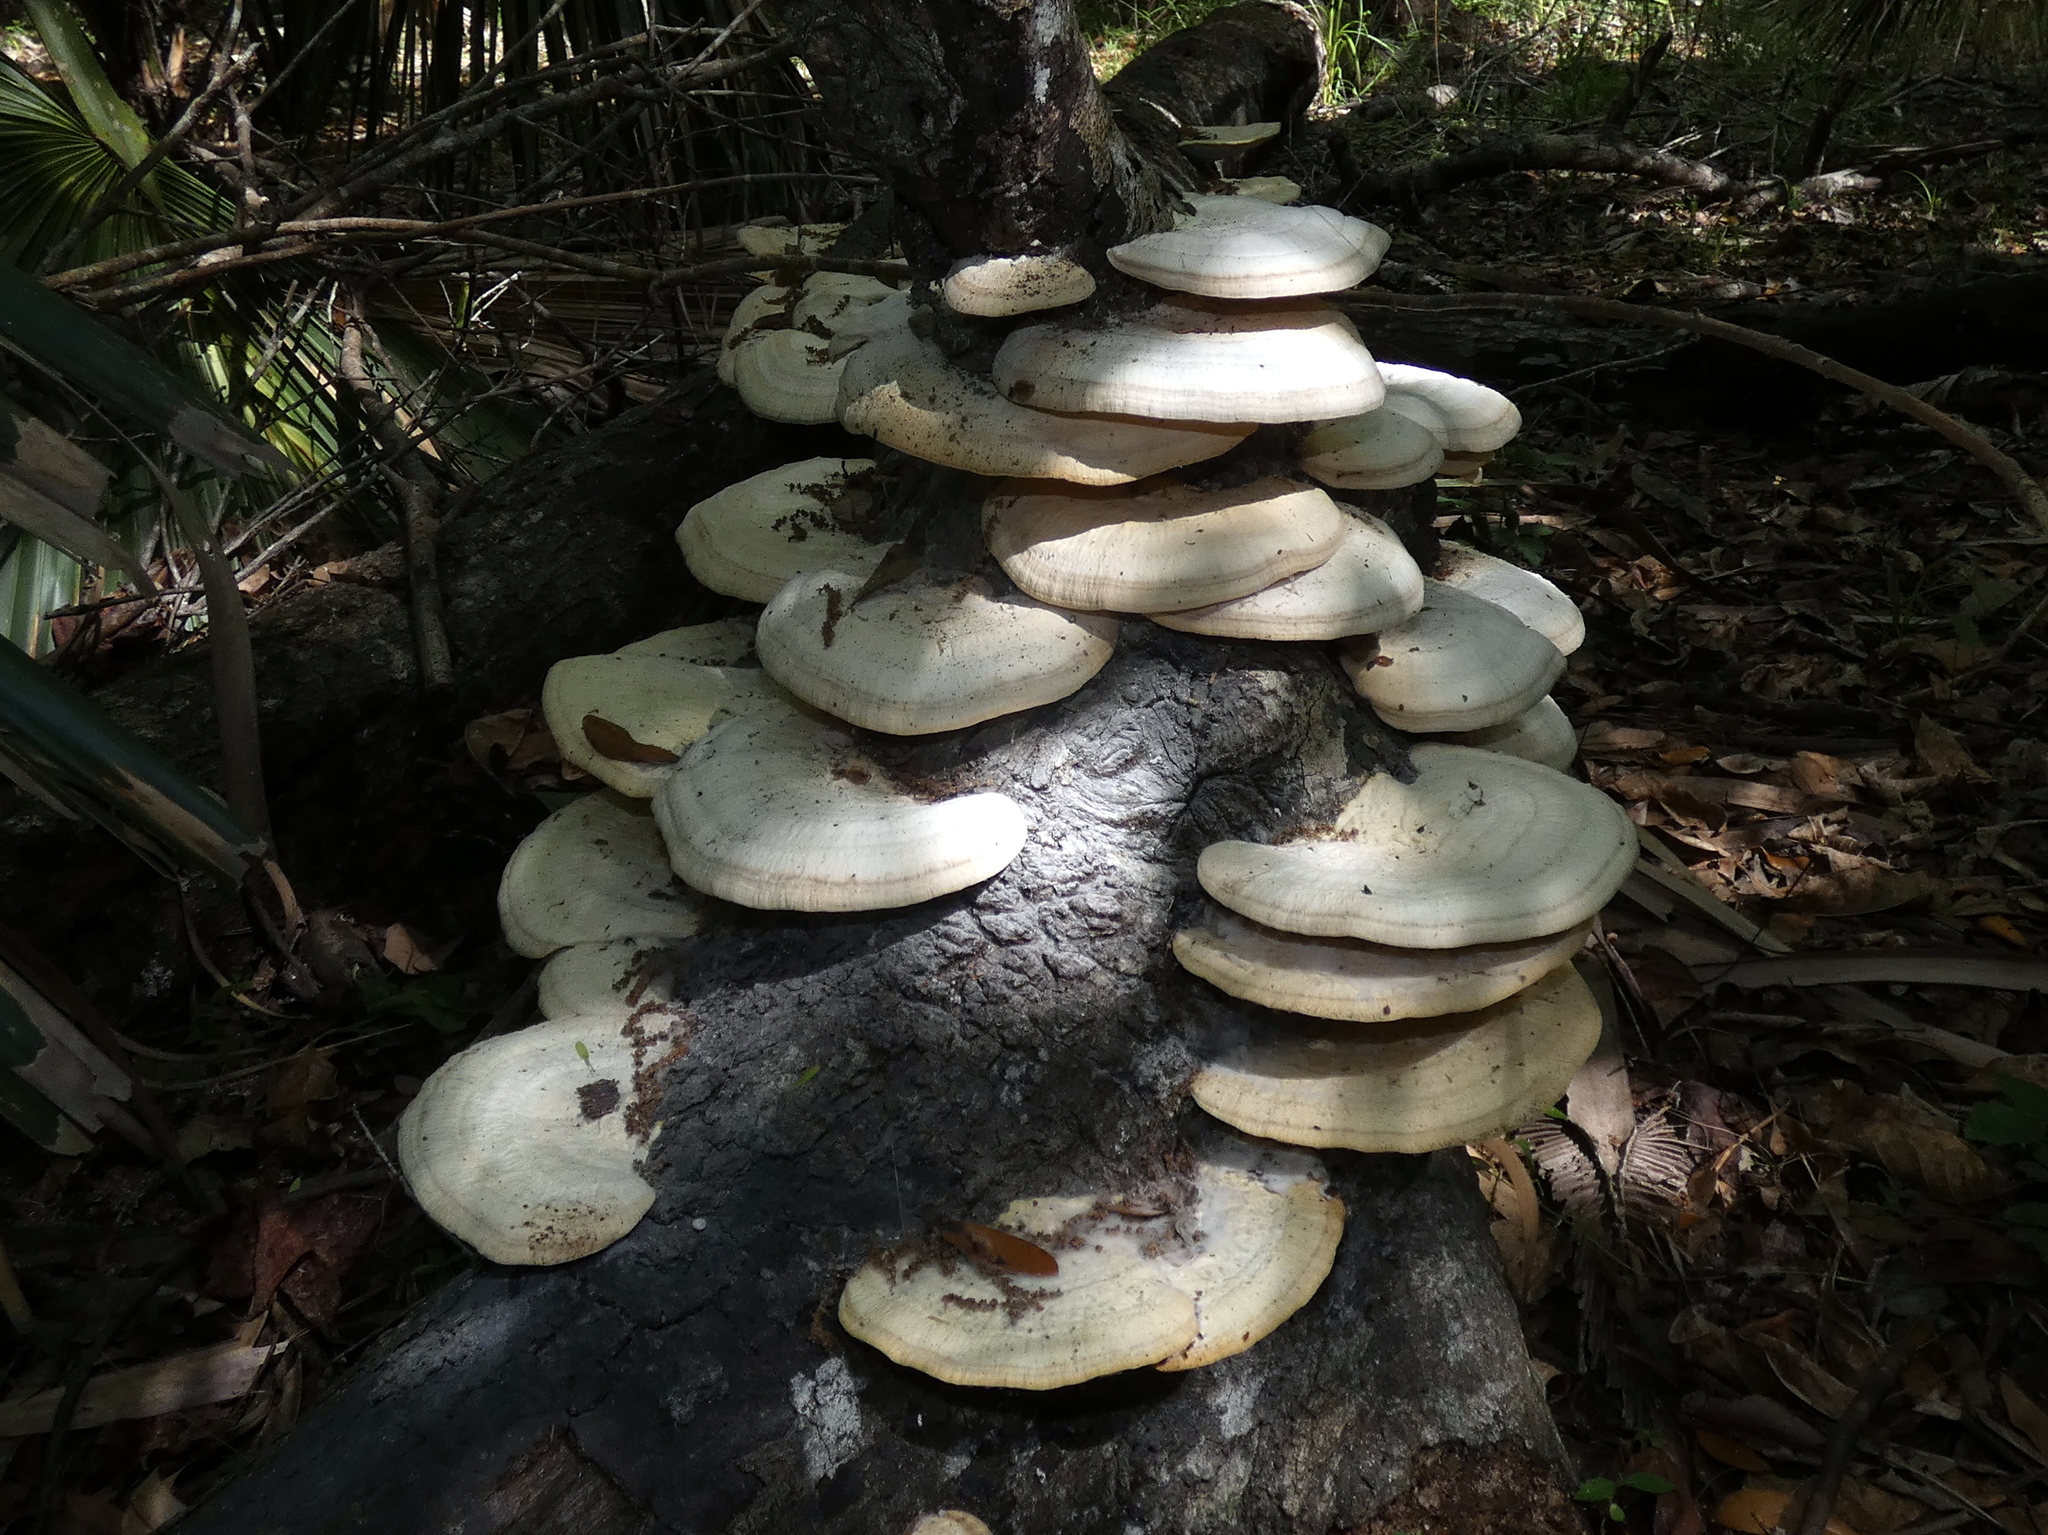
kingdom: Fungi
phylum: Basidiomycota
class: Agaricomycetes
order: Polyporales
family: Polyporaceae
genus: Trametes
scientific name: Trametes lactinea
